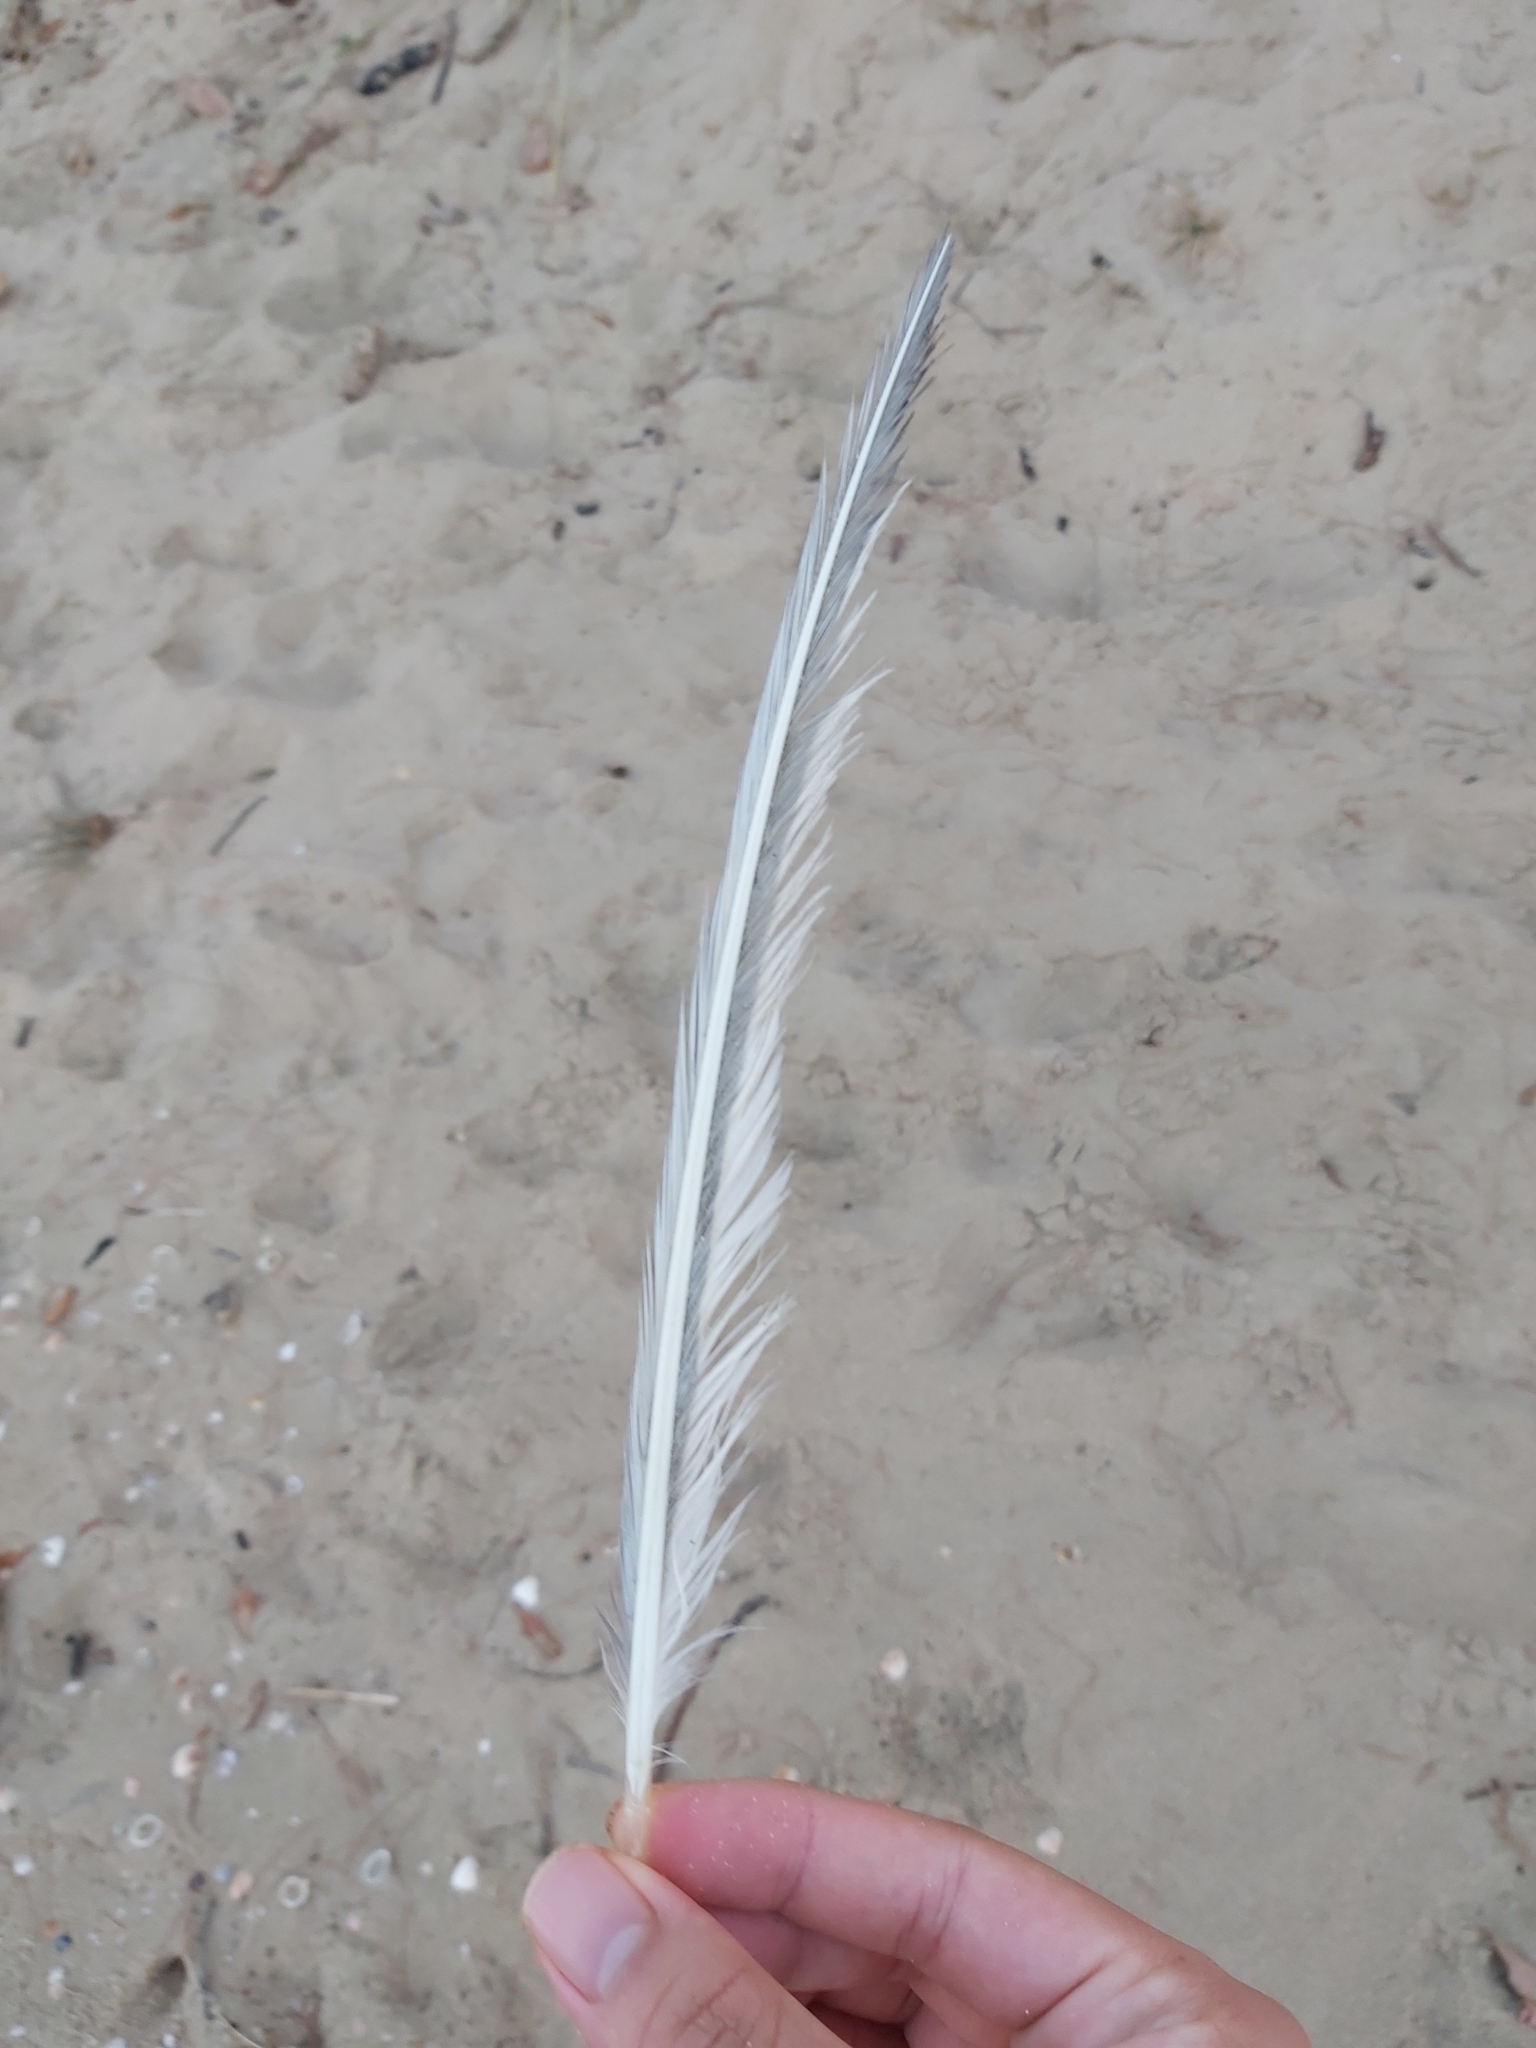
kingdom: Animalia
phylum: Chordata
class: Aves
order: Charadriiformes
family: Laridae
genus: Thalasseus
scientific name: Thalasseus bergii
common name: Greater crested tern
